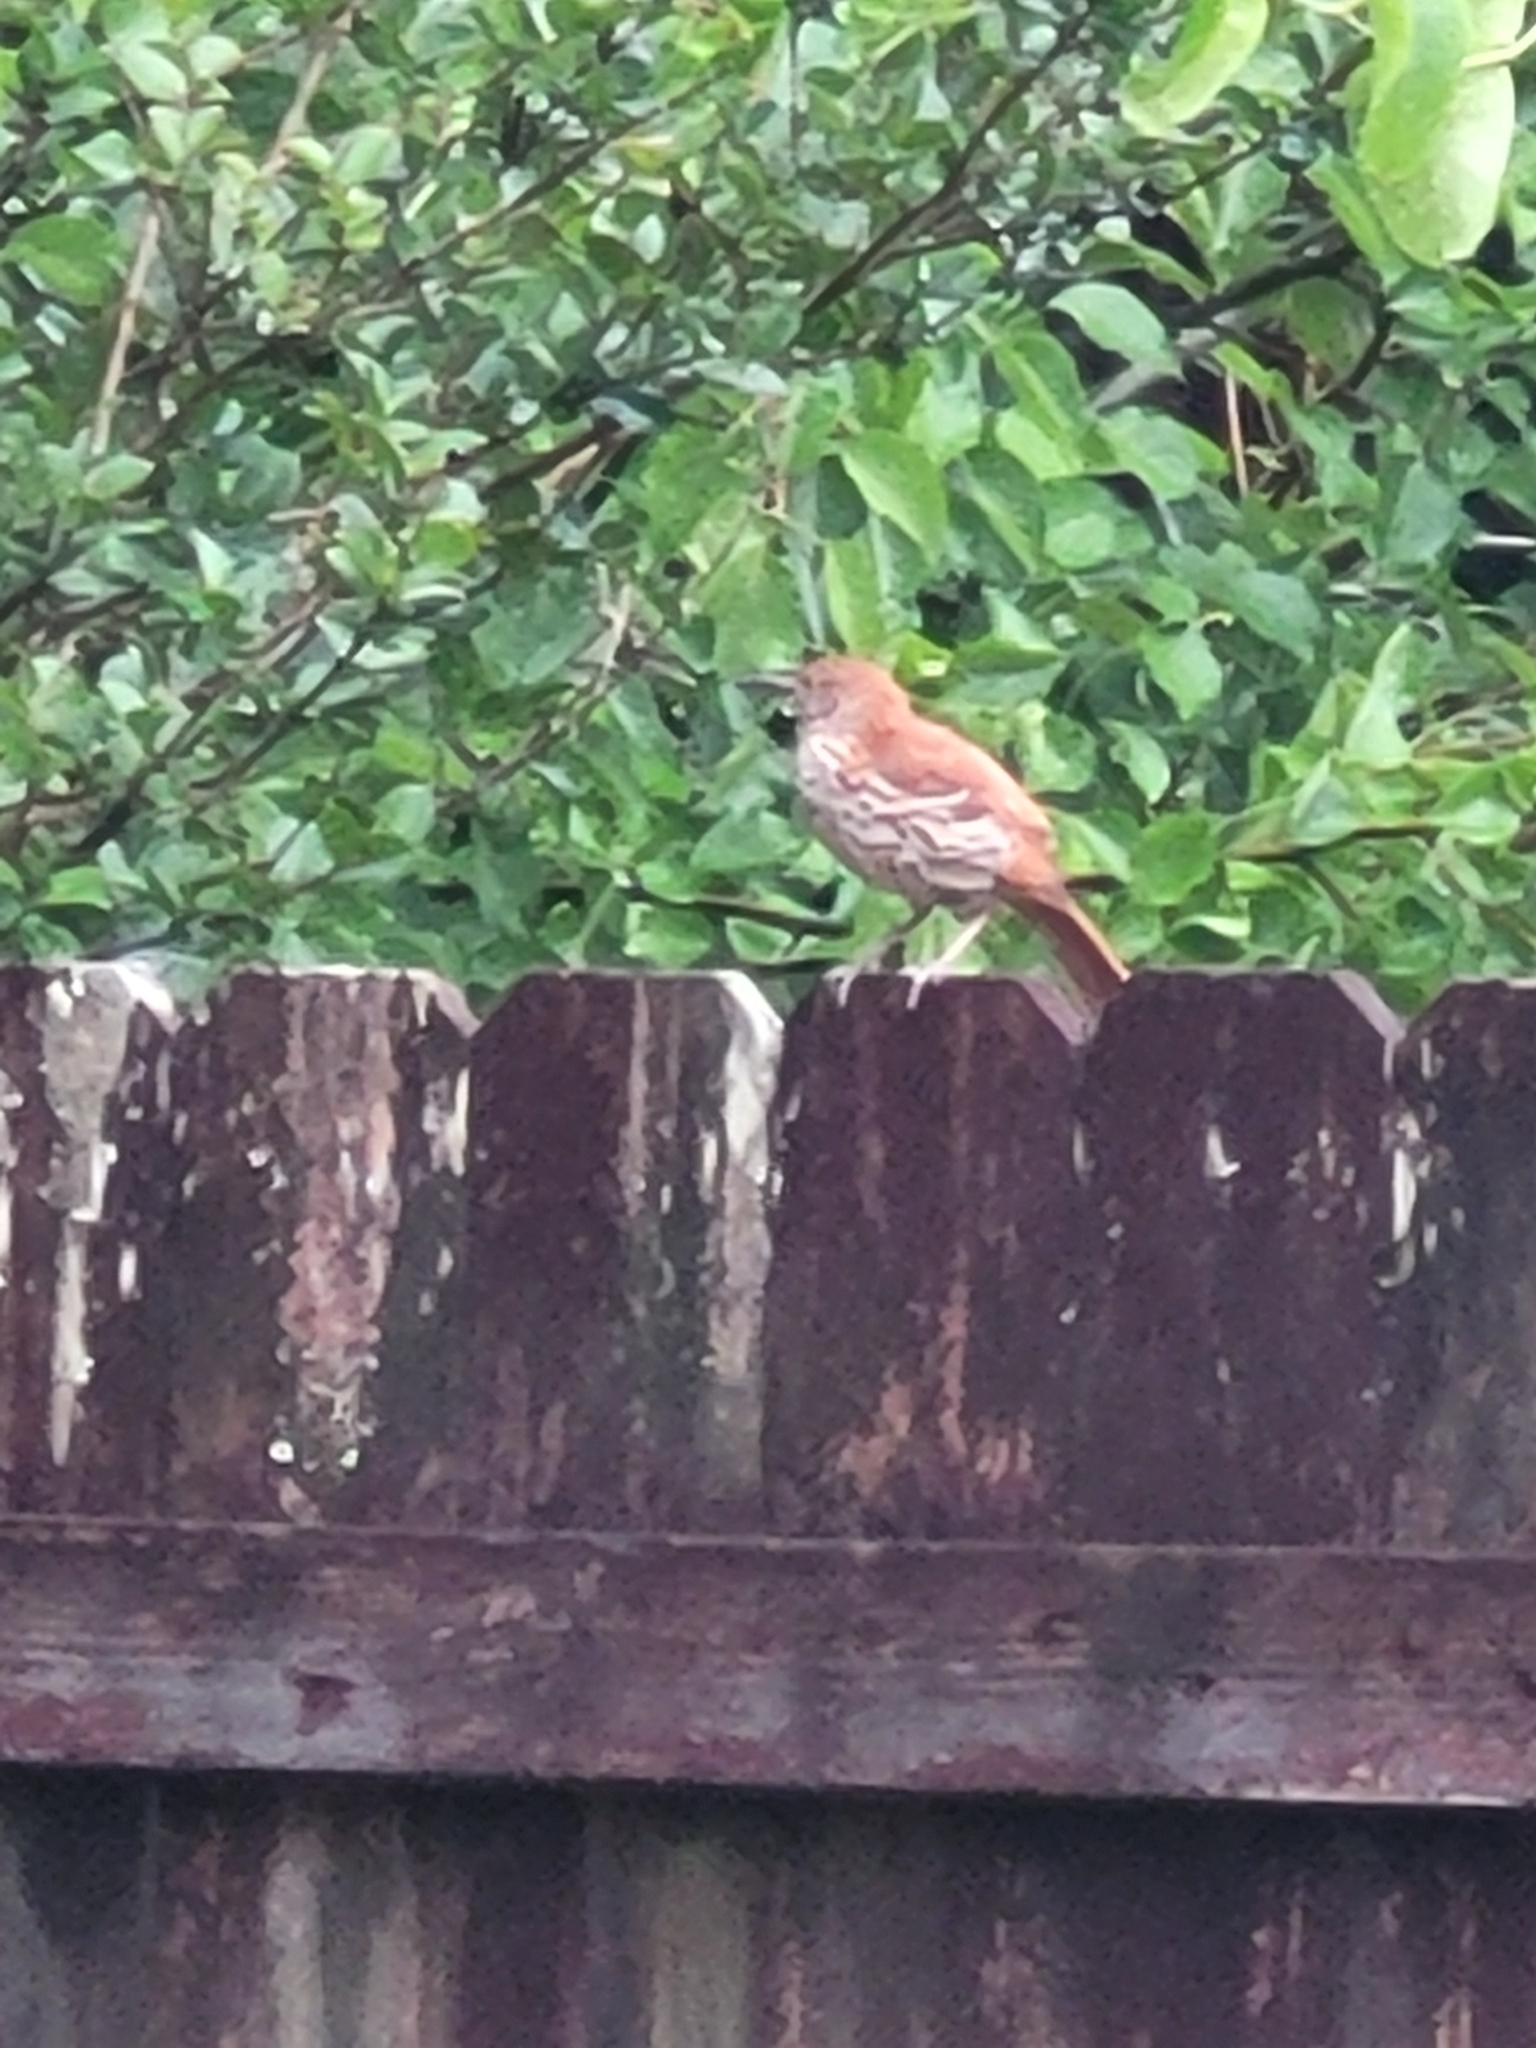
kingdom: Animalia
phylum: Chordata
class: Aves
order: Passeriformes
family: Mimidae
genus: Toxostoma
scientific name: Toxostoma rufum
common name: Brown thrasher
